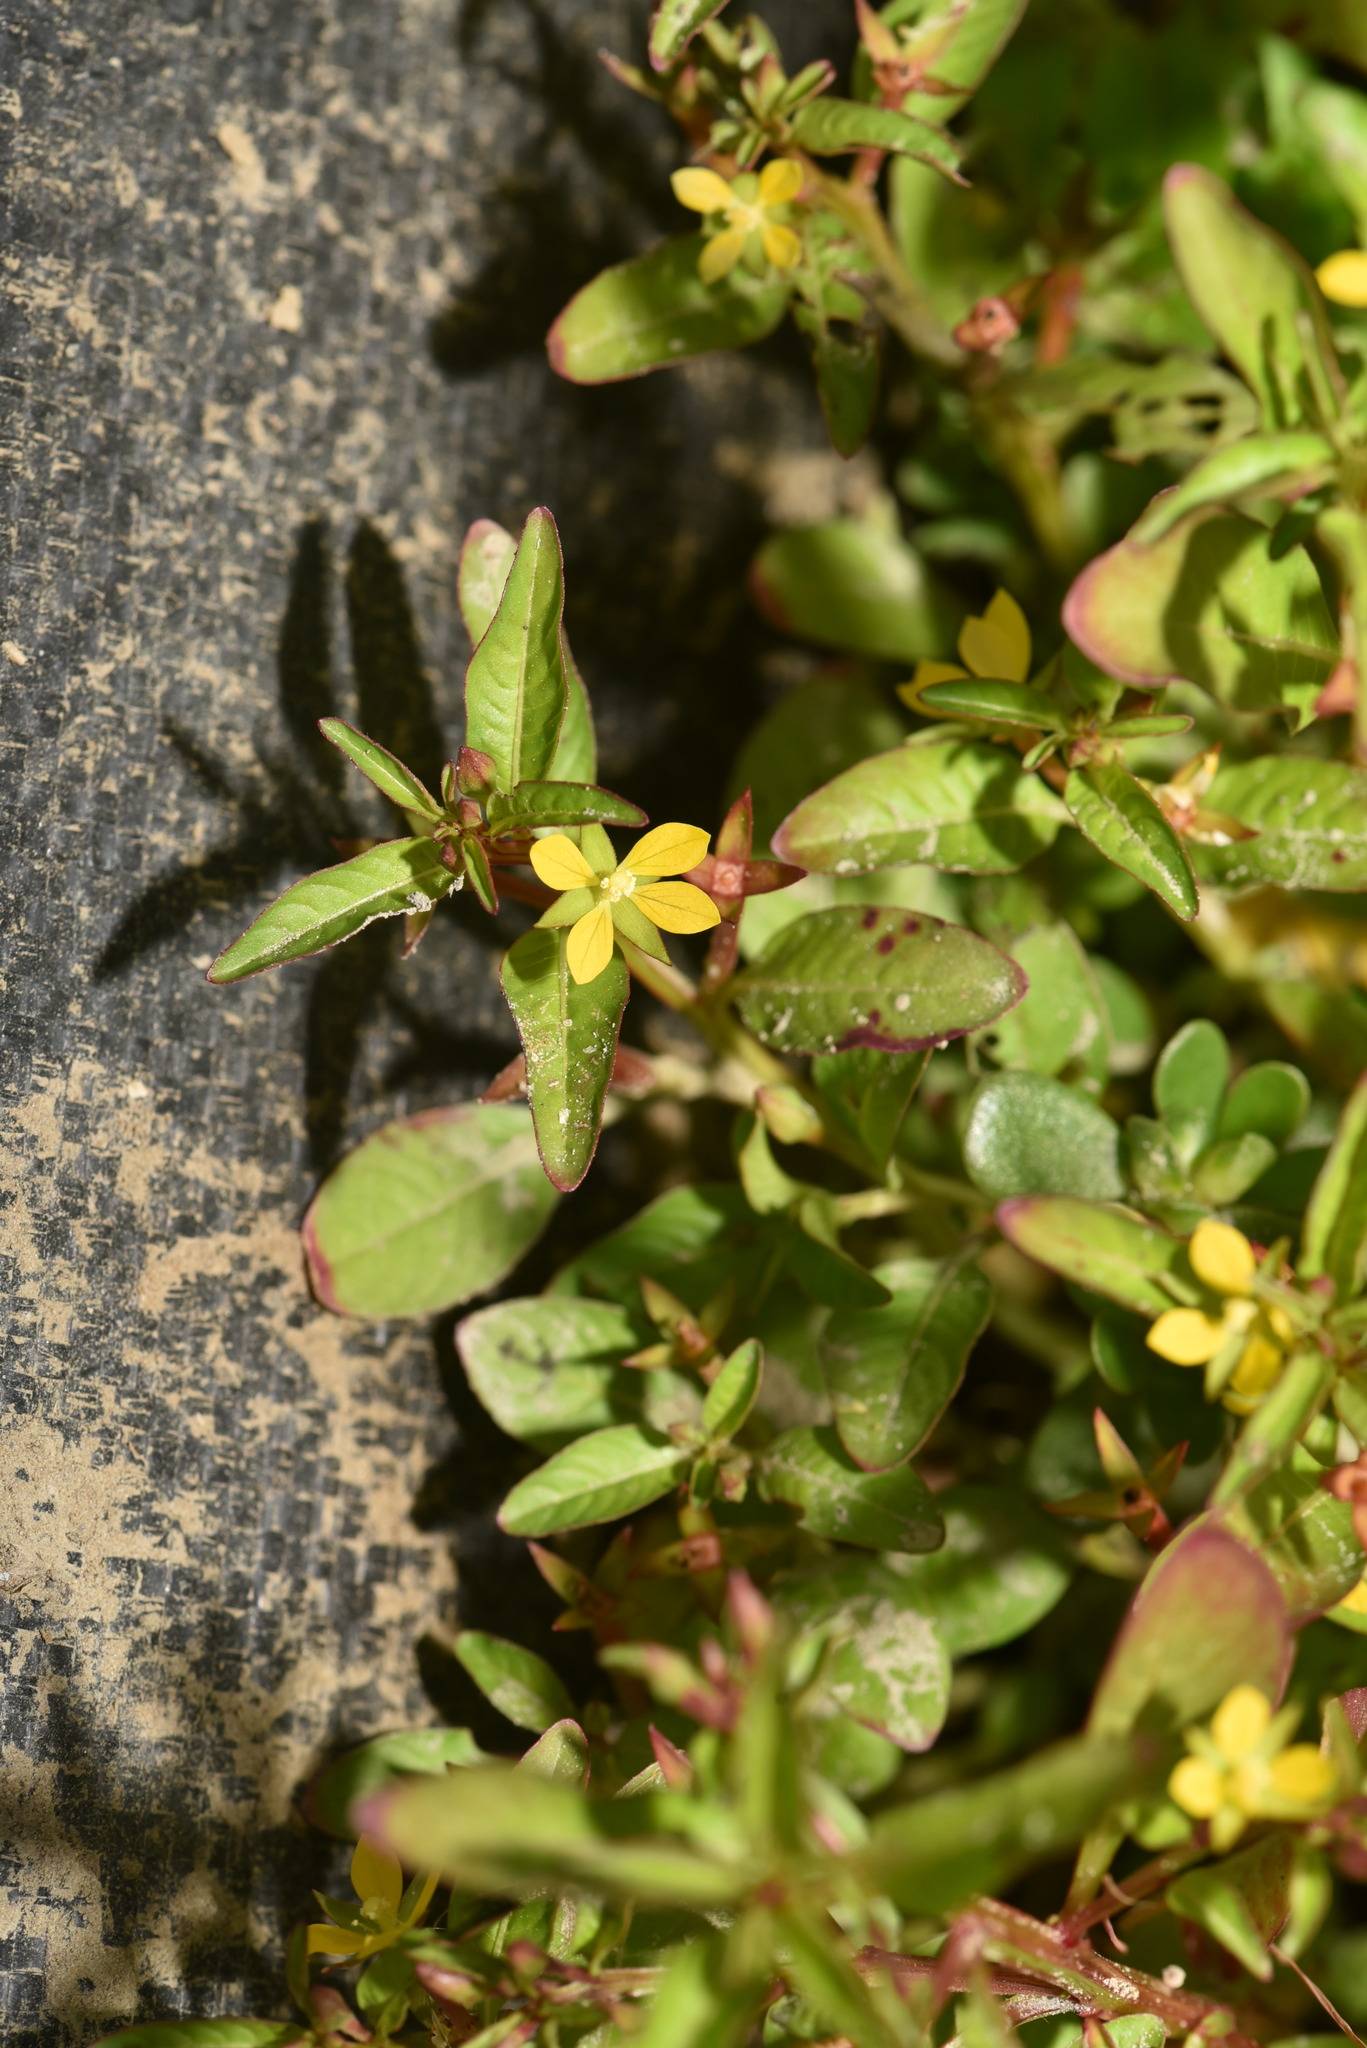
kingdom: Plantae
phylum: Tracheophyta
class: Magnoliopsida
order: Myrtales
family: Onagraceae
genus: Ludwigia
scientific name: Ludwigia hyssopifolia
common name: Linear leaf water primrose
